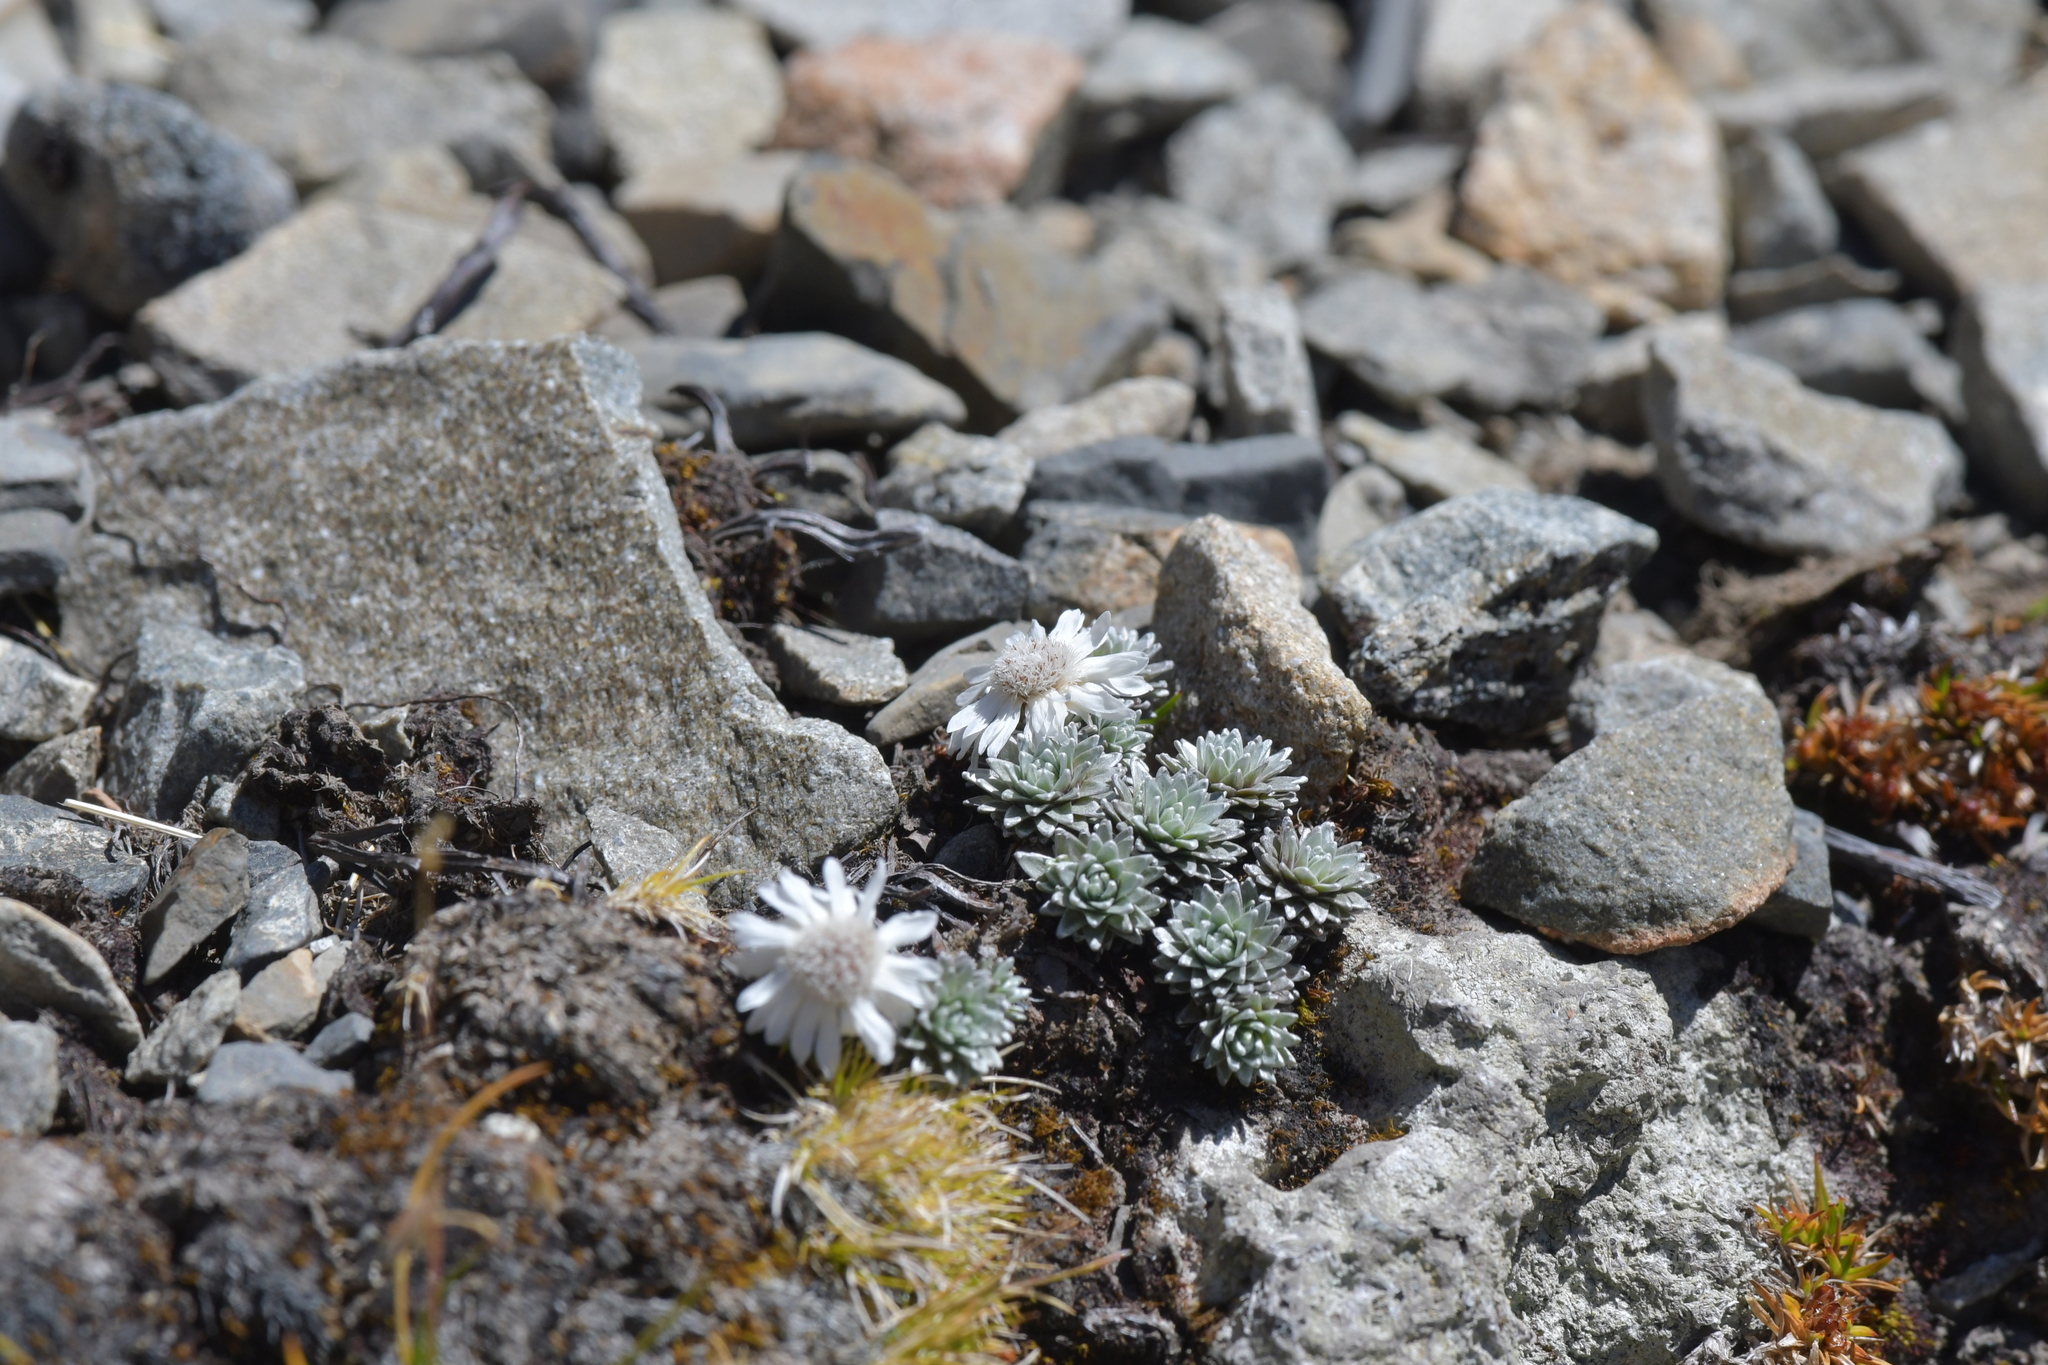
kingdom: Plantae
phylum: Tracheophyta
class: Magnoliopsida
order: Asterales
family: Asteraceae
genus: Raoulia
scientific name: Raoulia grandiflora
